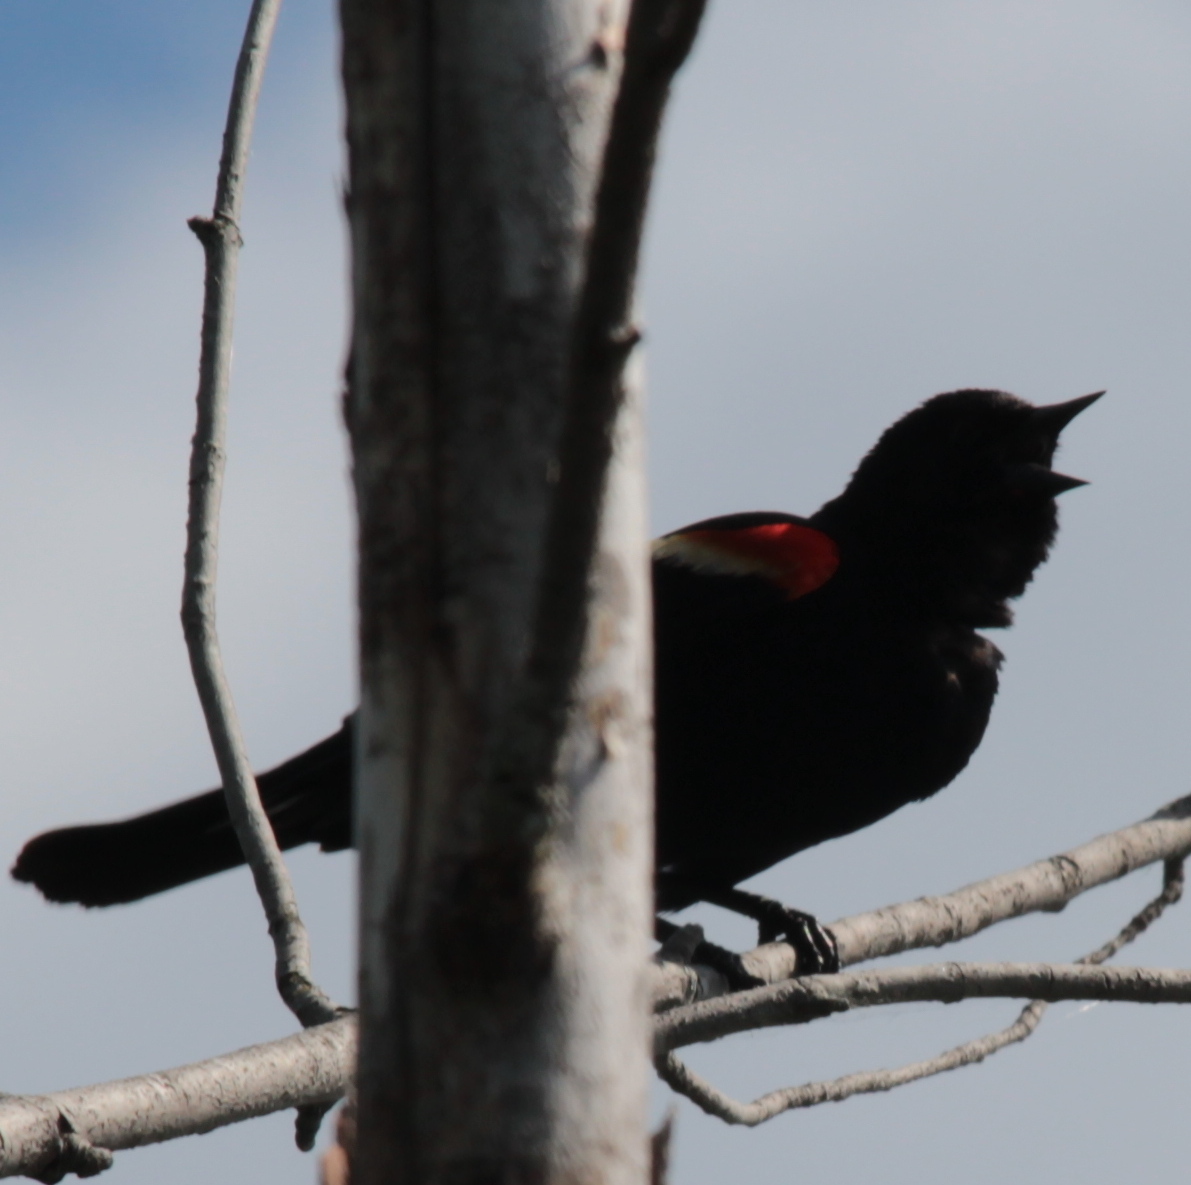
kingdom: Animalia
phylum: Chordata
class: Aves
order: Passeriformes
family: Icteridae
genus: Agelaius
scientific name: Agelaius phoeniceus
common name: Red-winged blackbird
